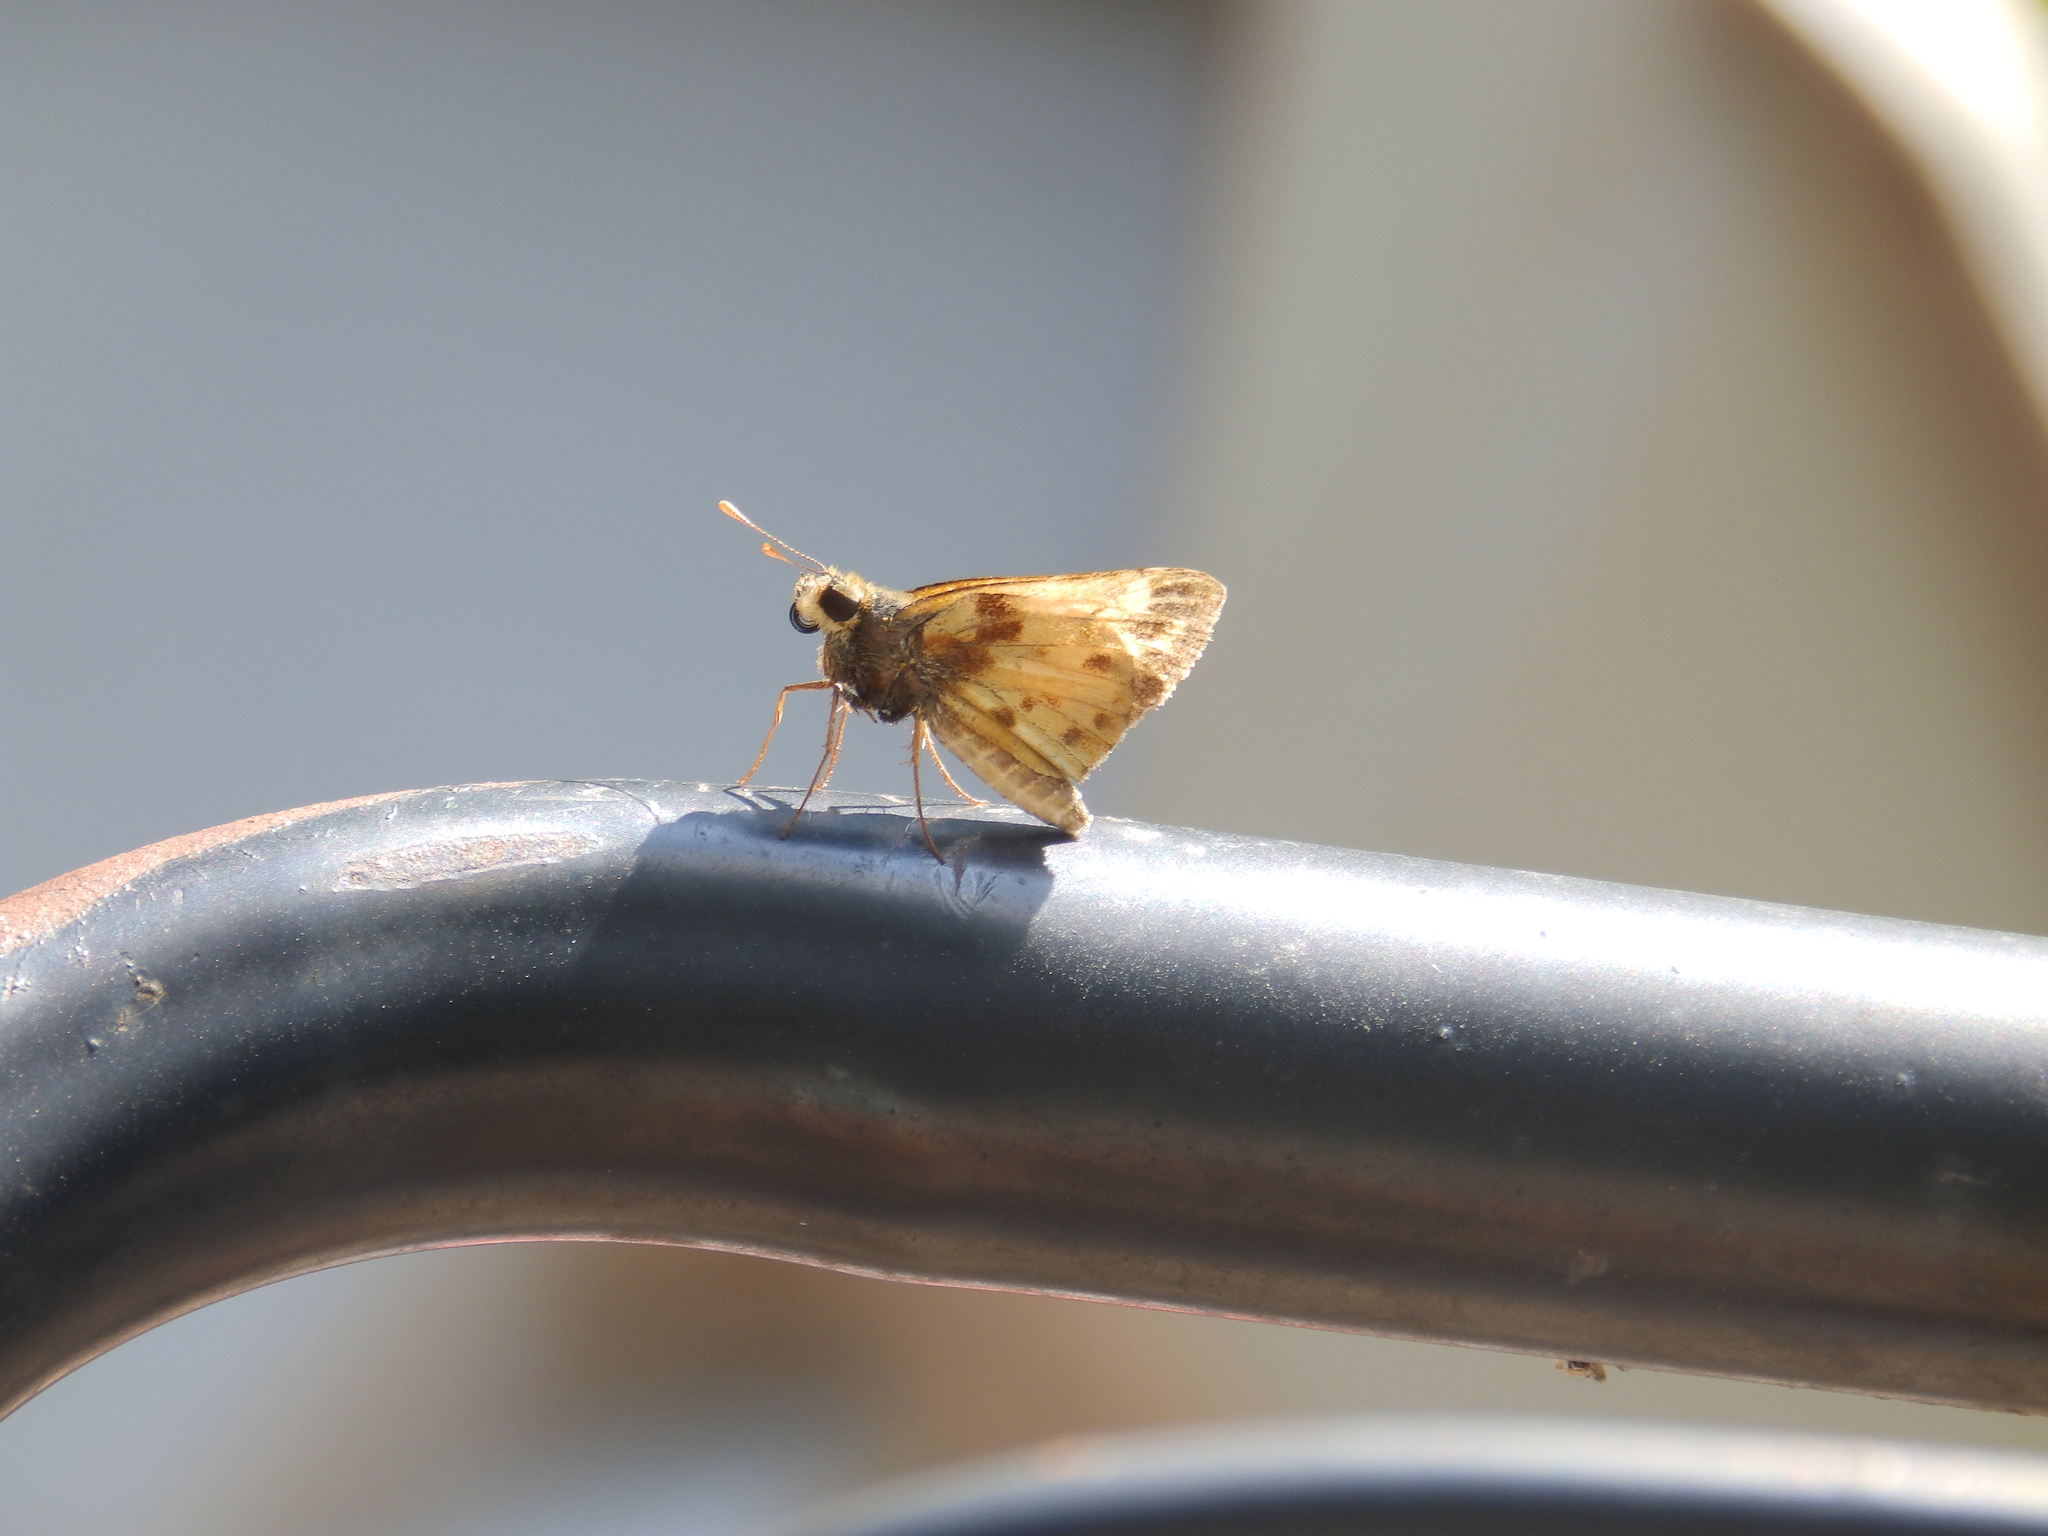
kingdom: Animalia
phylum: Arthropoda
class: Insecta
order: Lepidoptera
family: Hesperiidae
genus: Lon
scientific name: Lon zabulon
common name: Zabulon skipper
